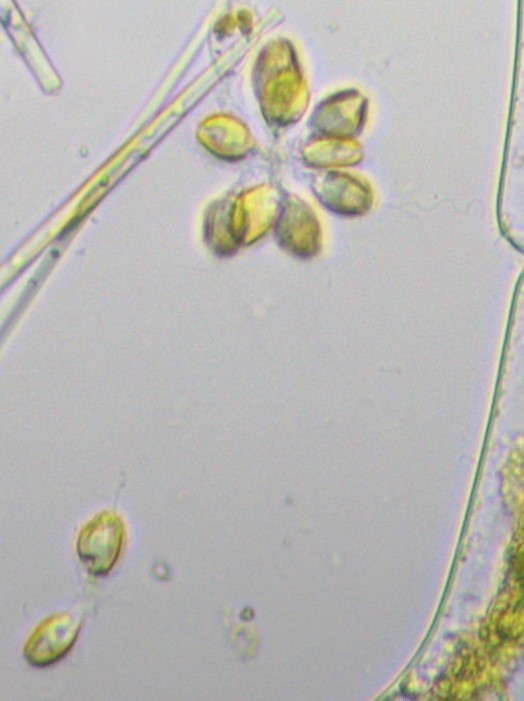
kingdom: Chromista
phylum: Ochrophyta
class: Synurophyceae
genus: Synura
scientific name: Synura
